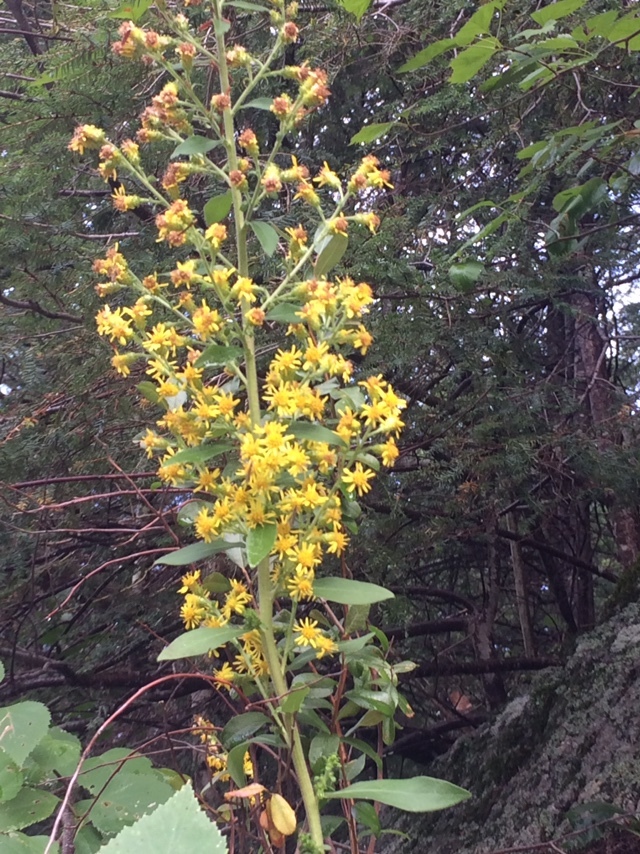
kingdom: Plantae
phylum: Tracheophyta
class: Magnoliopsida
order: Asterales
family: Asteraceae
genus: Solidago
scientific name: Solidago squarrosa
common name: Stout goldenrod
